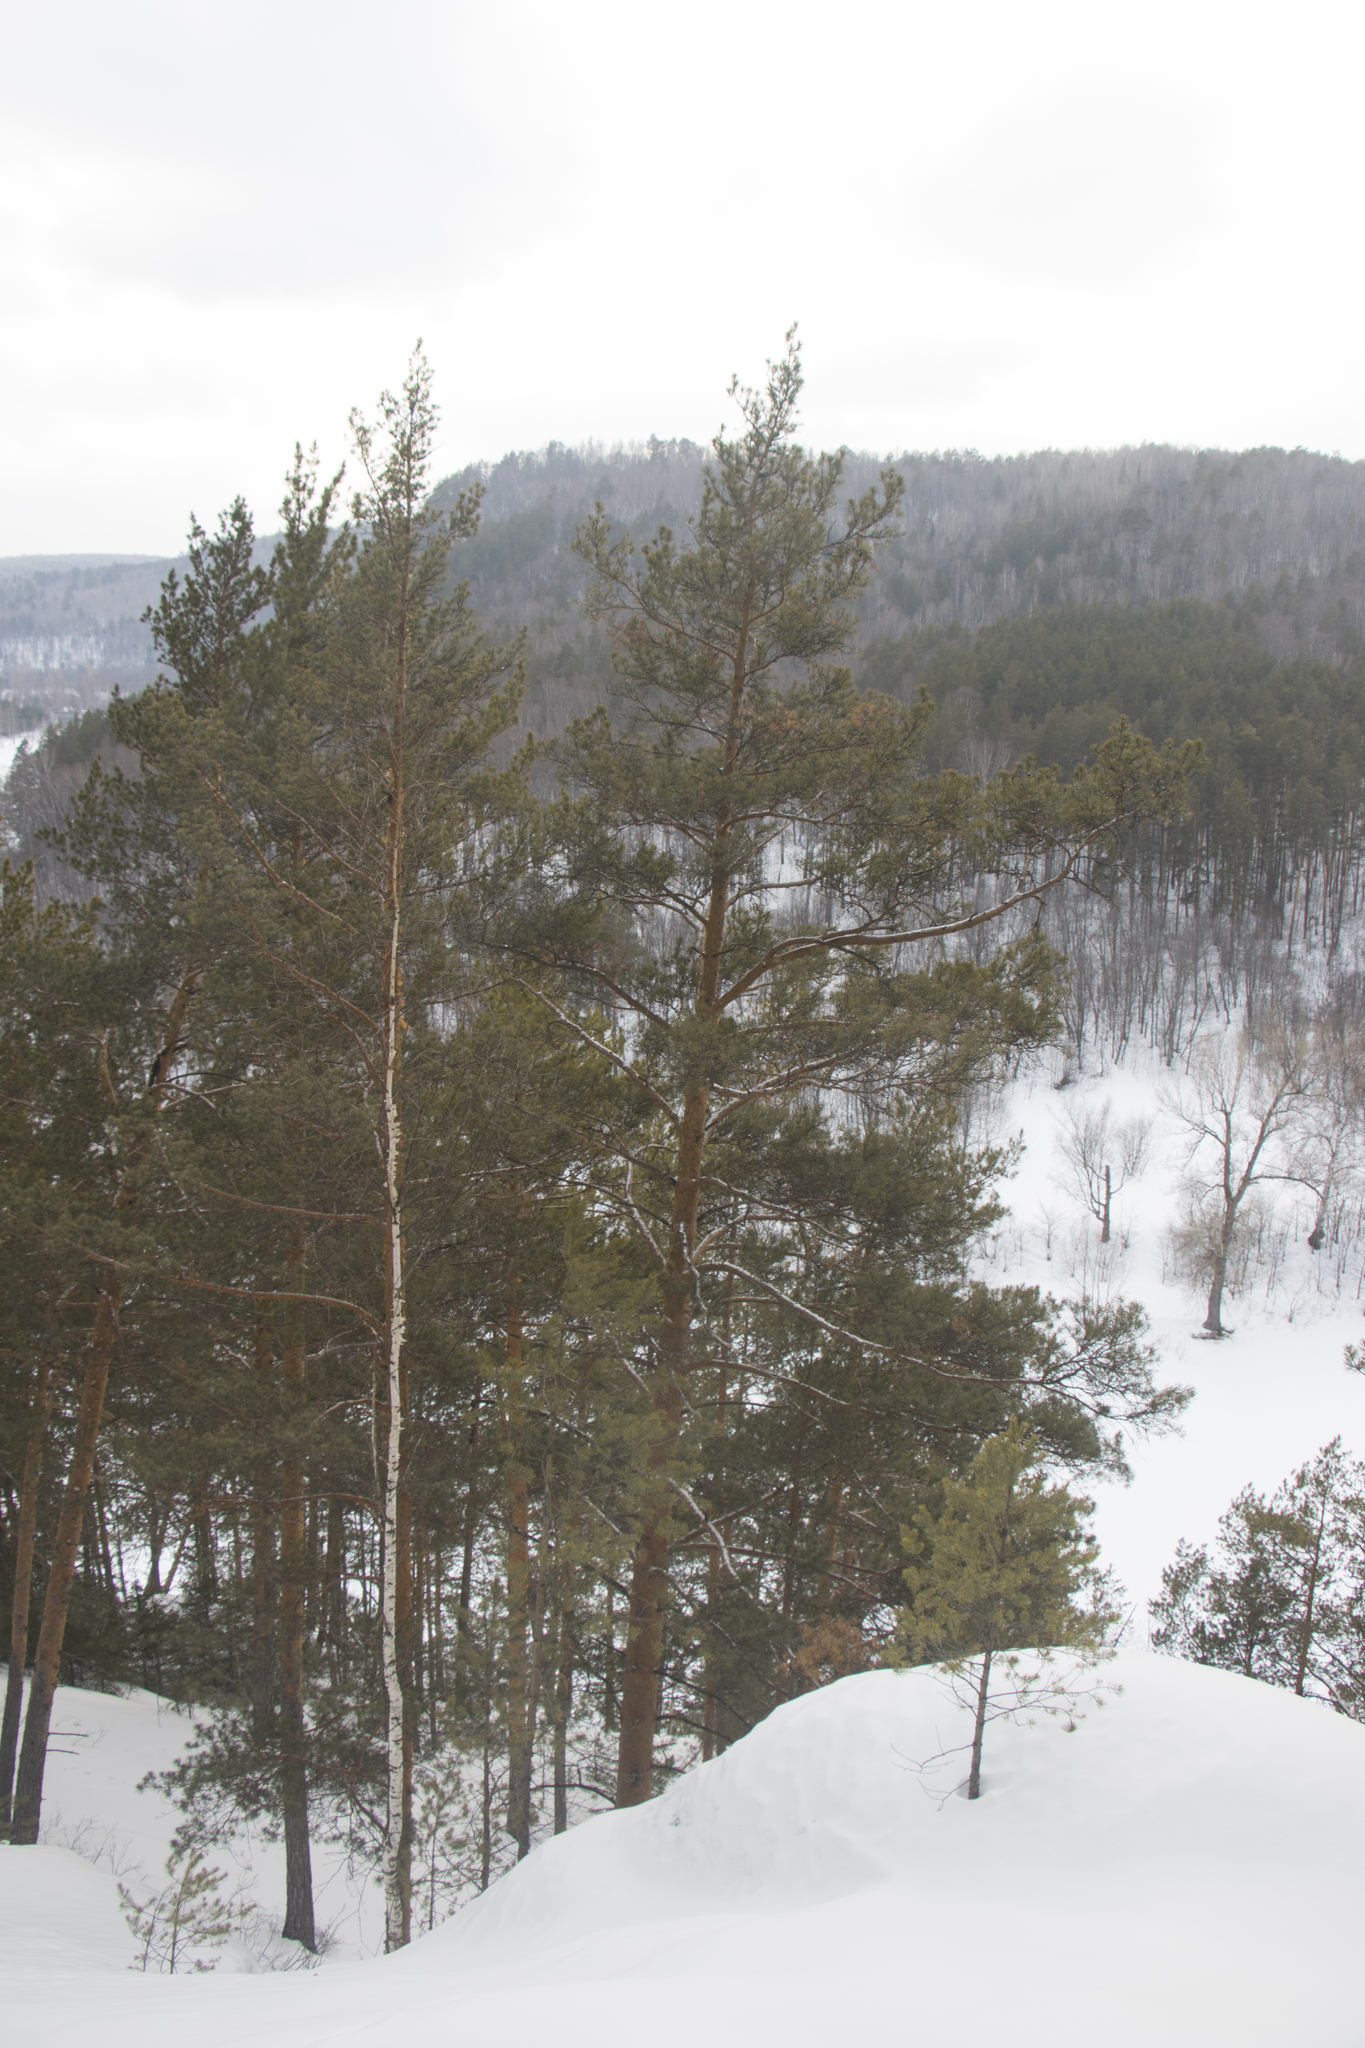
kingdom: Plantae
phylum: Tracheophyta
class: Pinopsida
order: Pinales
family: Pinaceae
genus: Pinus
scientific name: Pinus sylvestris
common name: Scots pine
